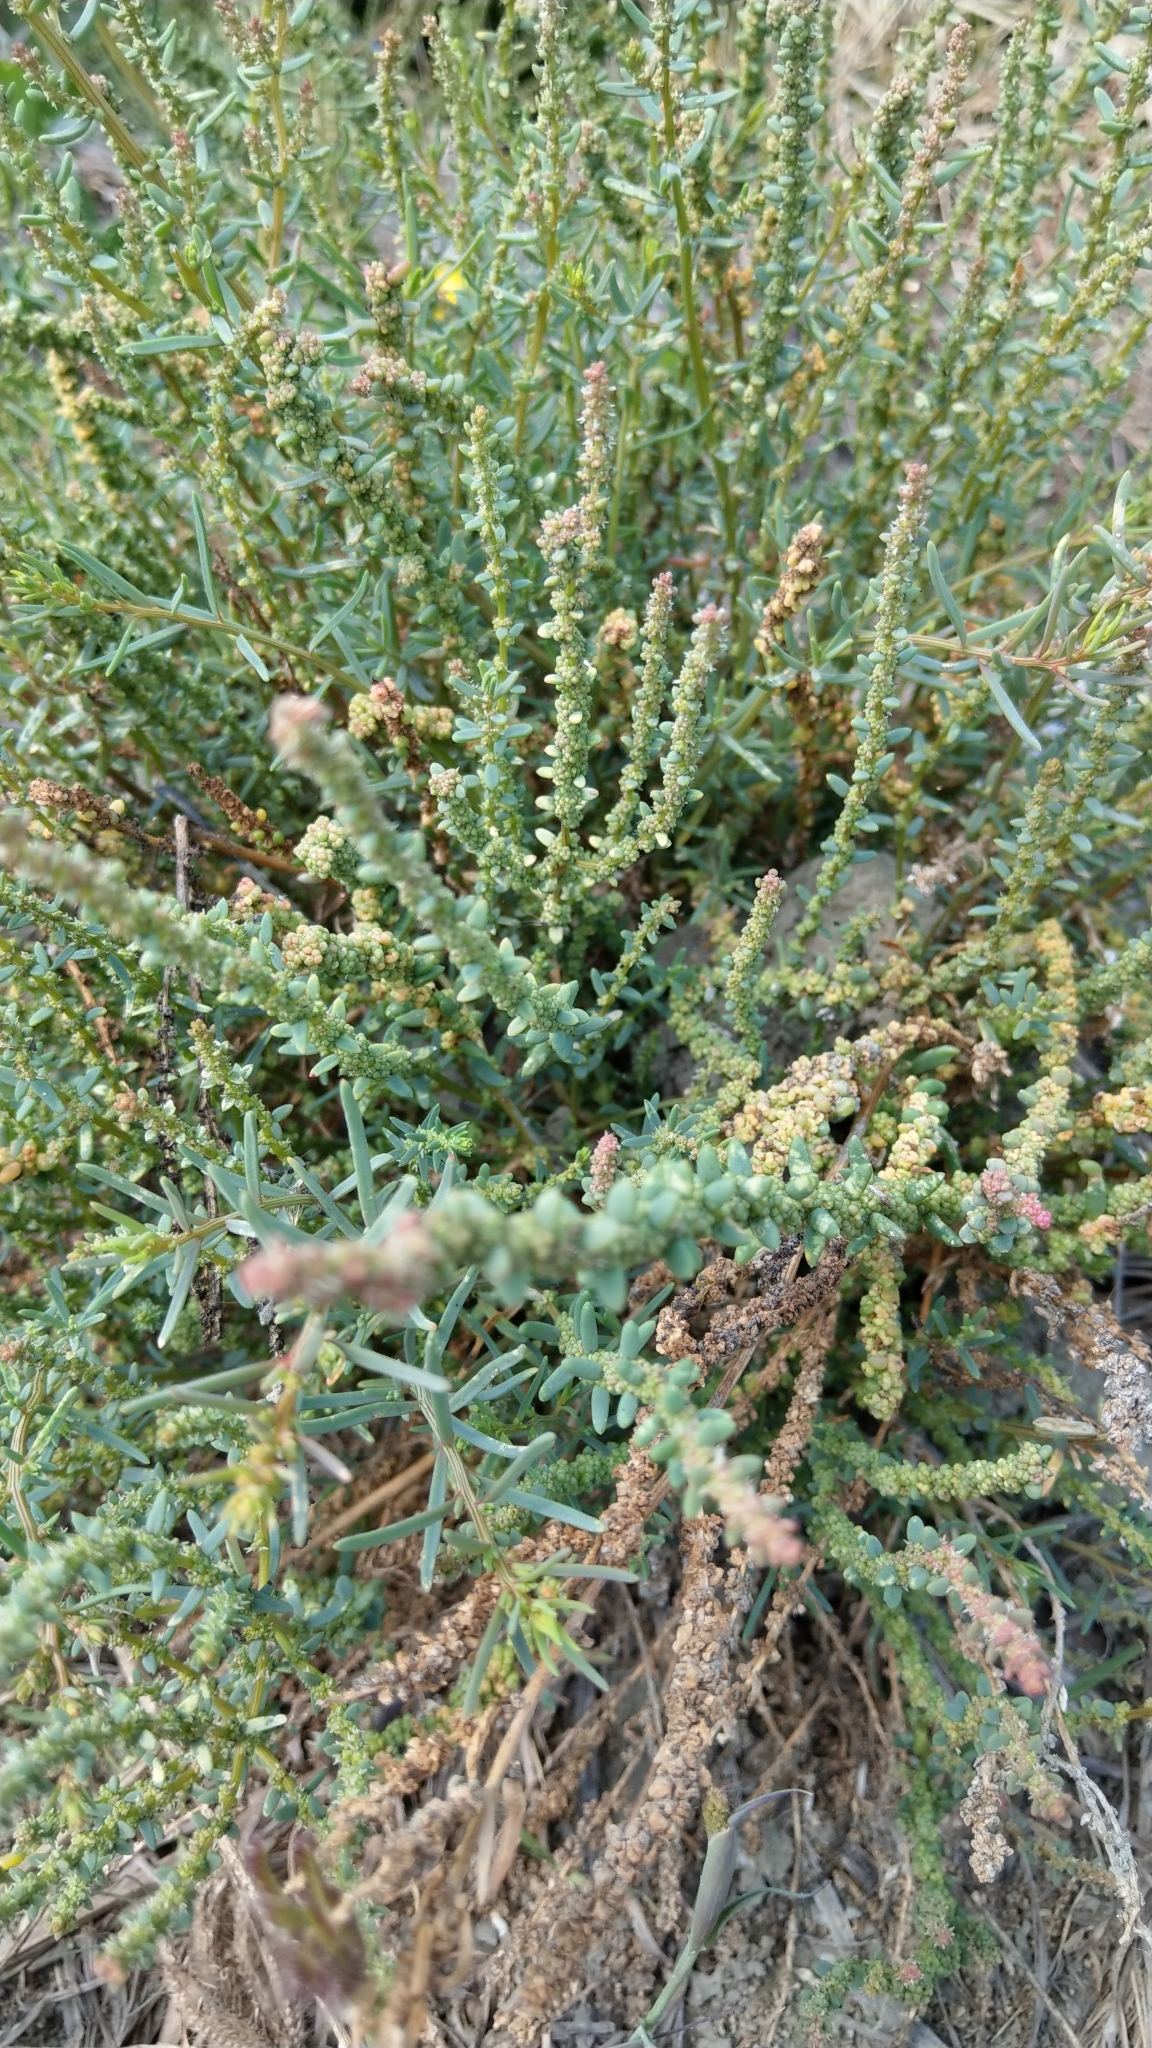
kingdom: Plantae
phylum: Tracheophyta
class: Magnoliopsida
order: Caryophyllales
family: Amaranthaceae
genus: Suaeda
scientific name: Suaeda maritima
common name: Annual sea-blite
